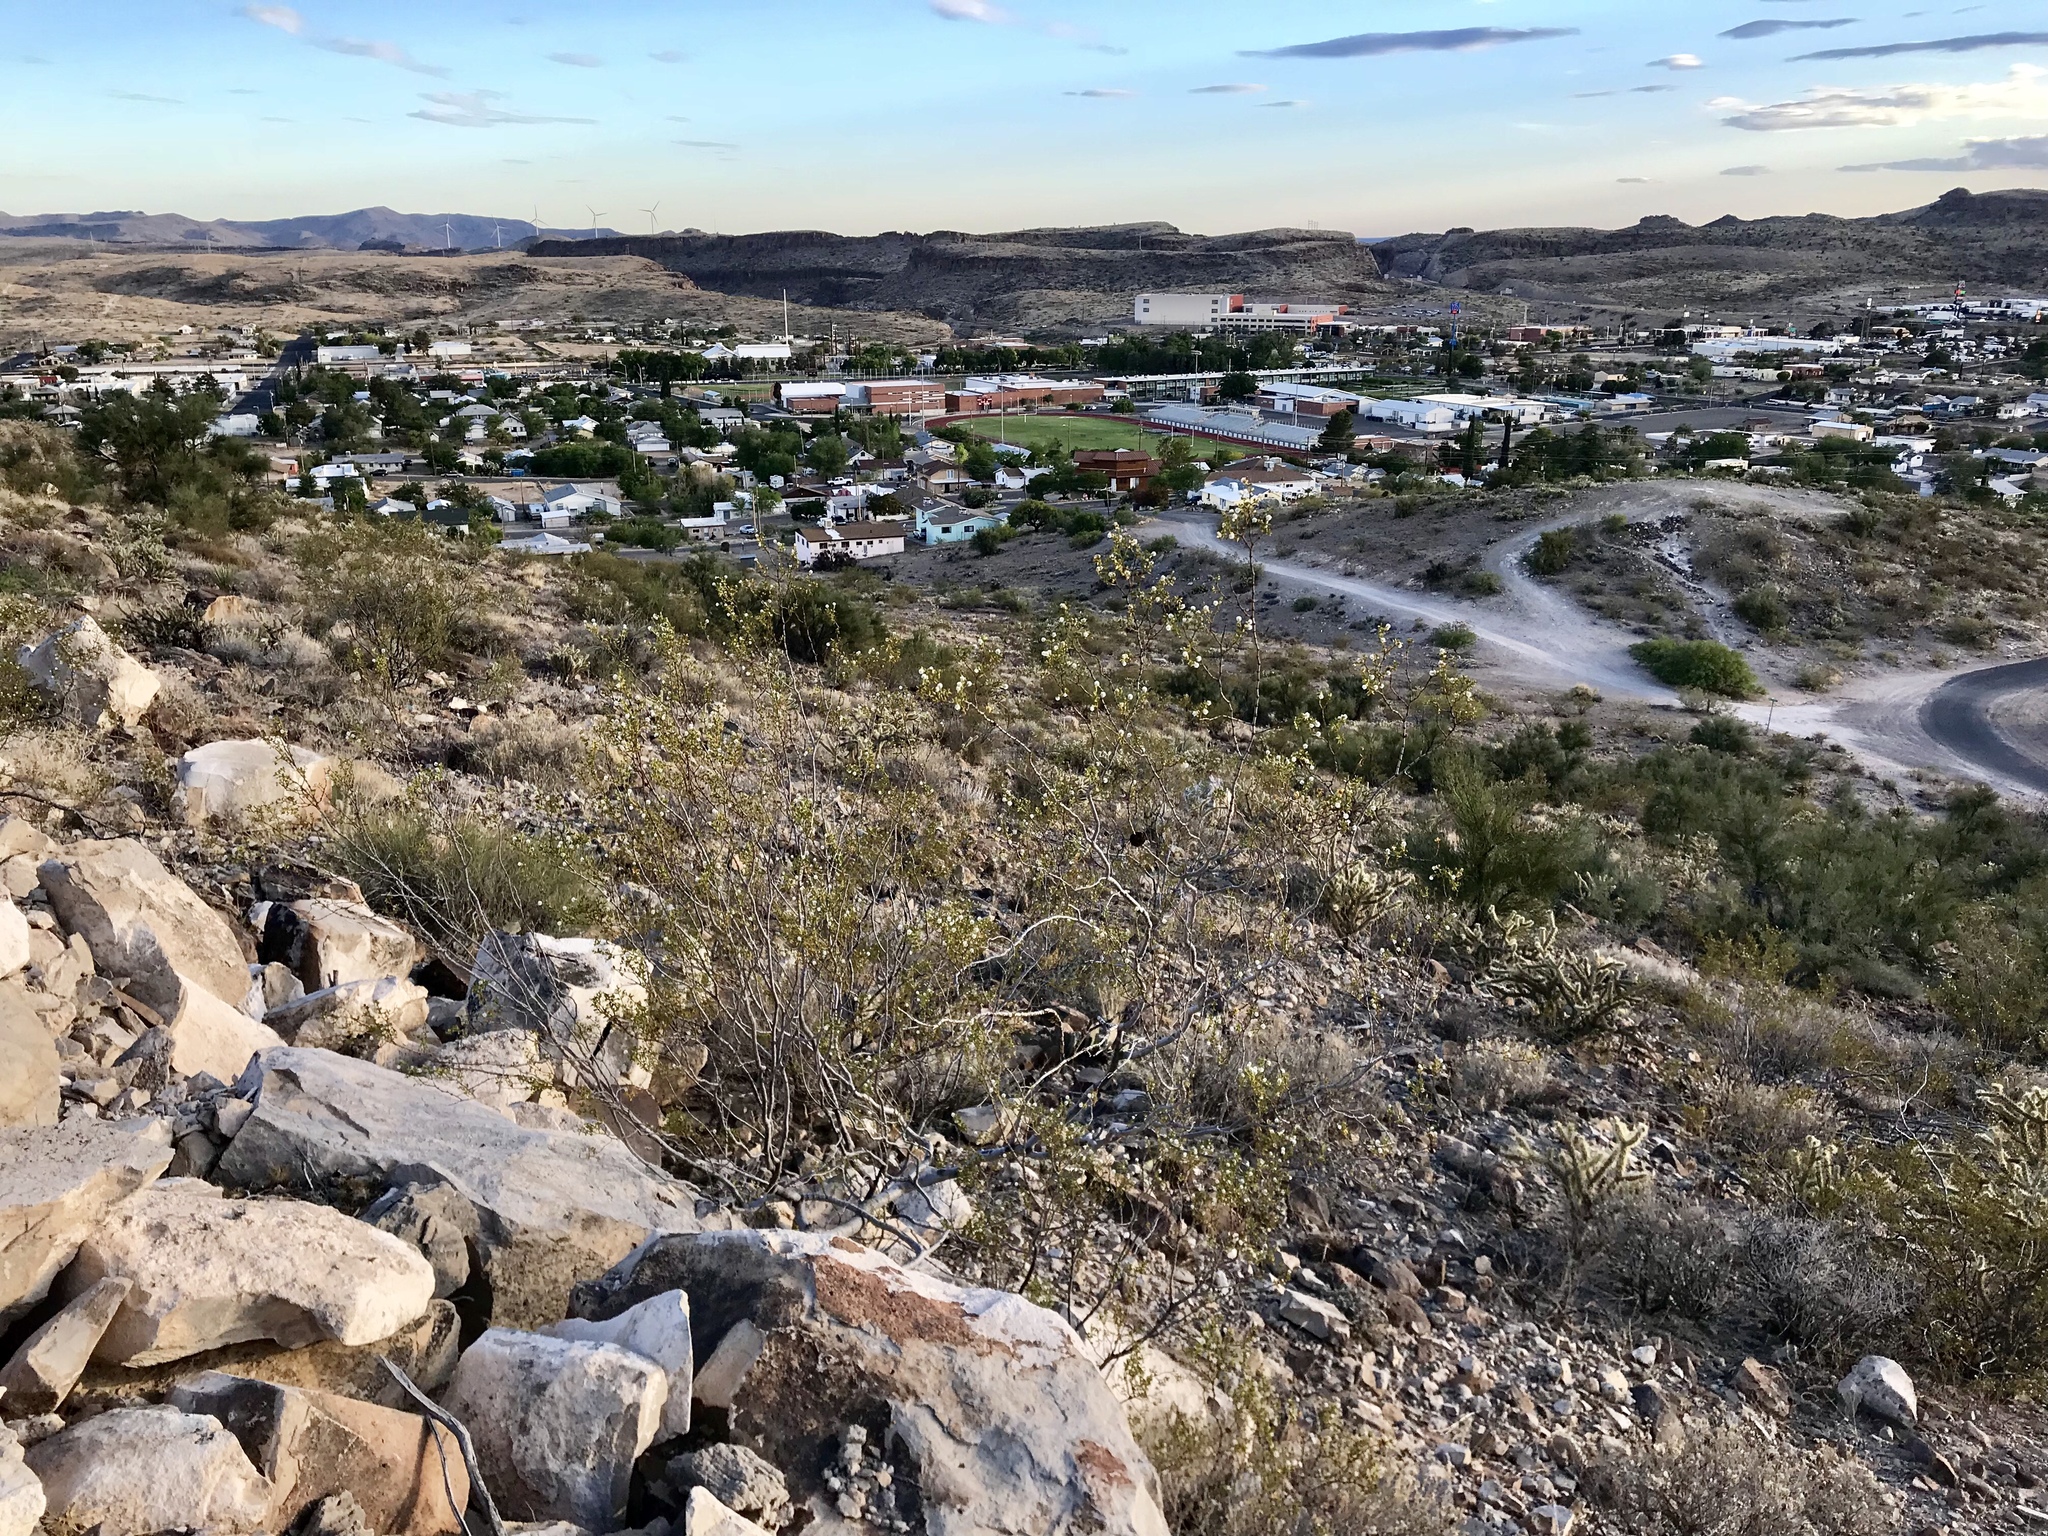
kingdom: Plantae
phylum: Tracheophyta
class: Magnoliopsida
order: Zygophyllales
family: Zygophyllaceae
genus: Larrea
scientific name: Larrea tridentata
